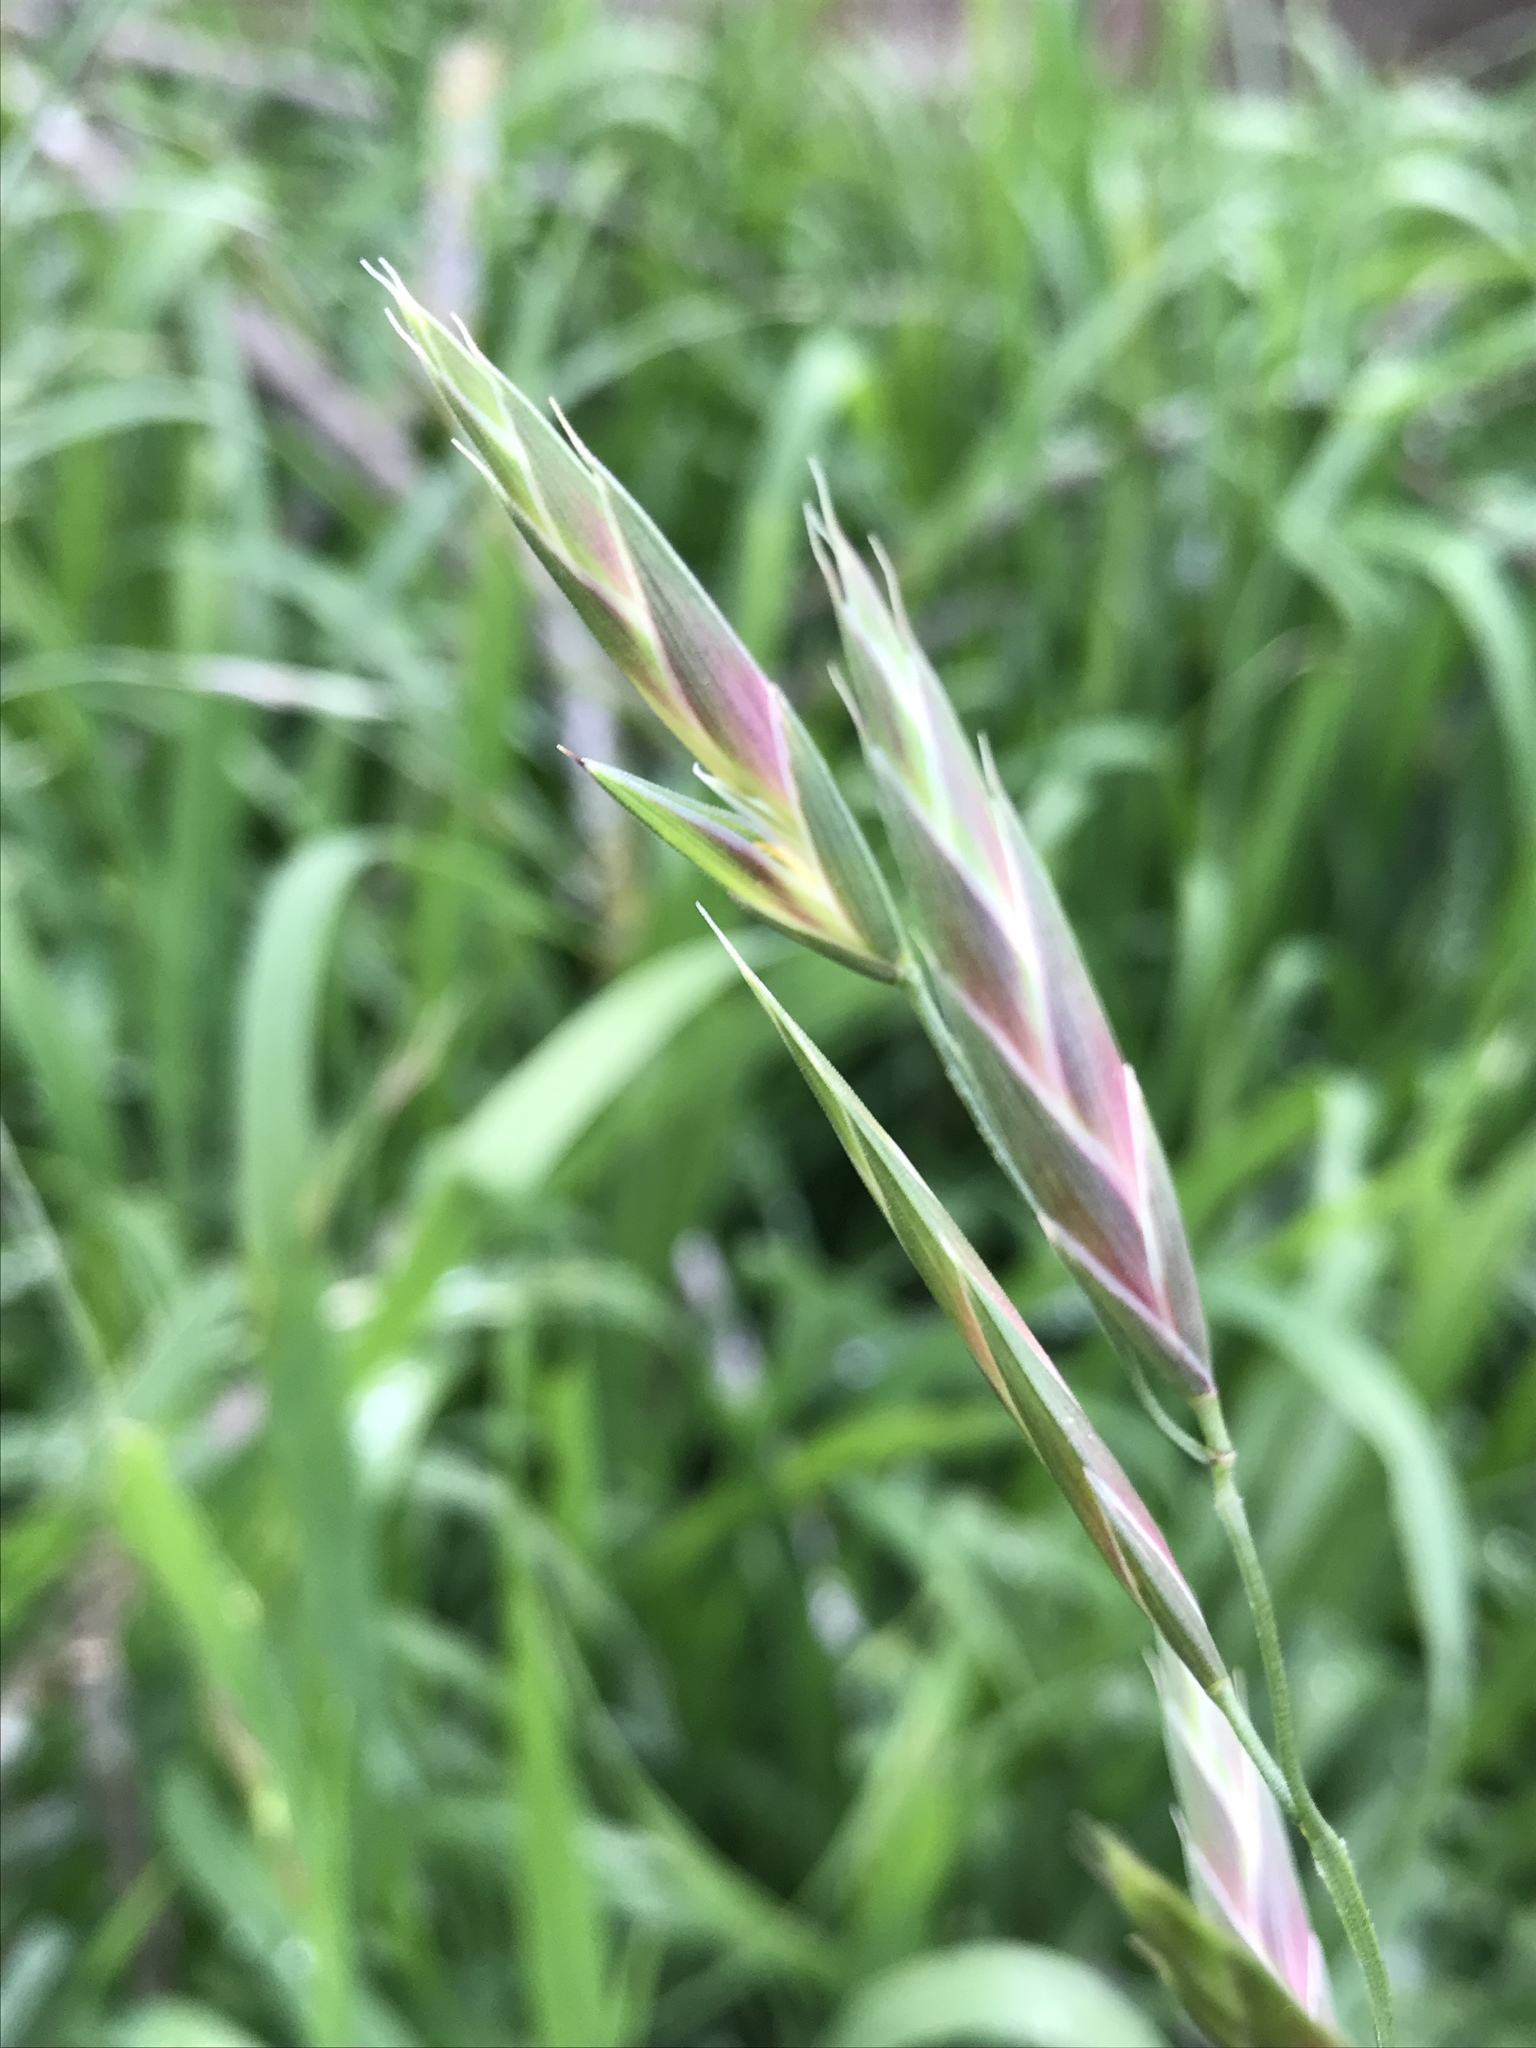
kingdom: Plantae
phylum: Tracheophyta
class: Liliopsida
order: Poales
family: Poaceae
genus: Bromus
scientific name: Bromus catharticus
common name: Rescuegrass
